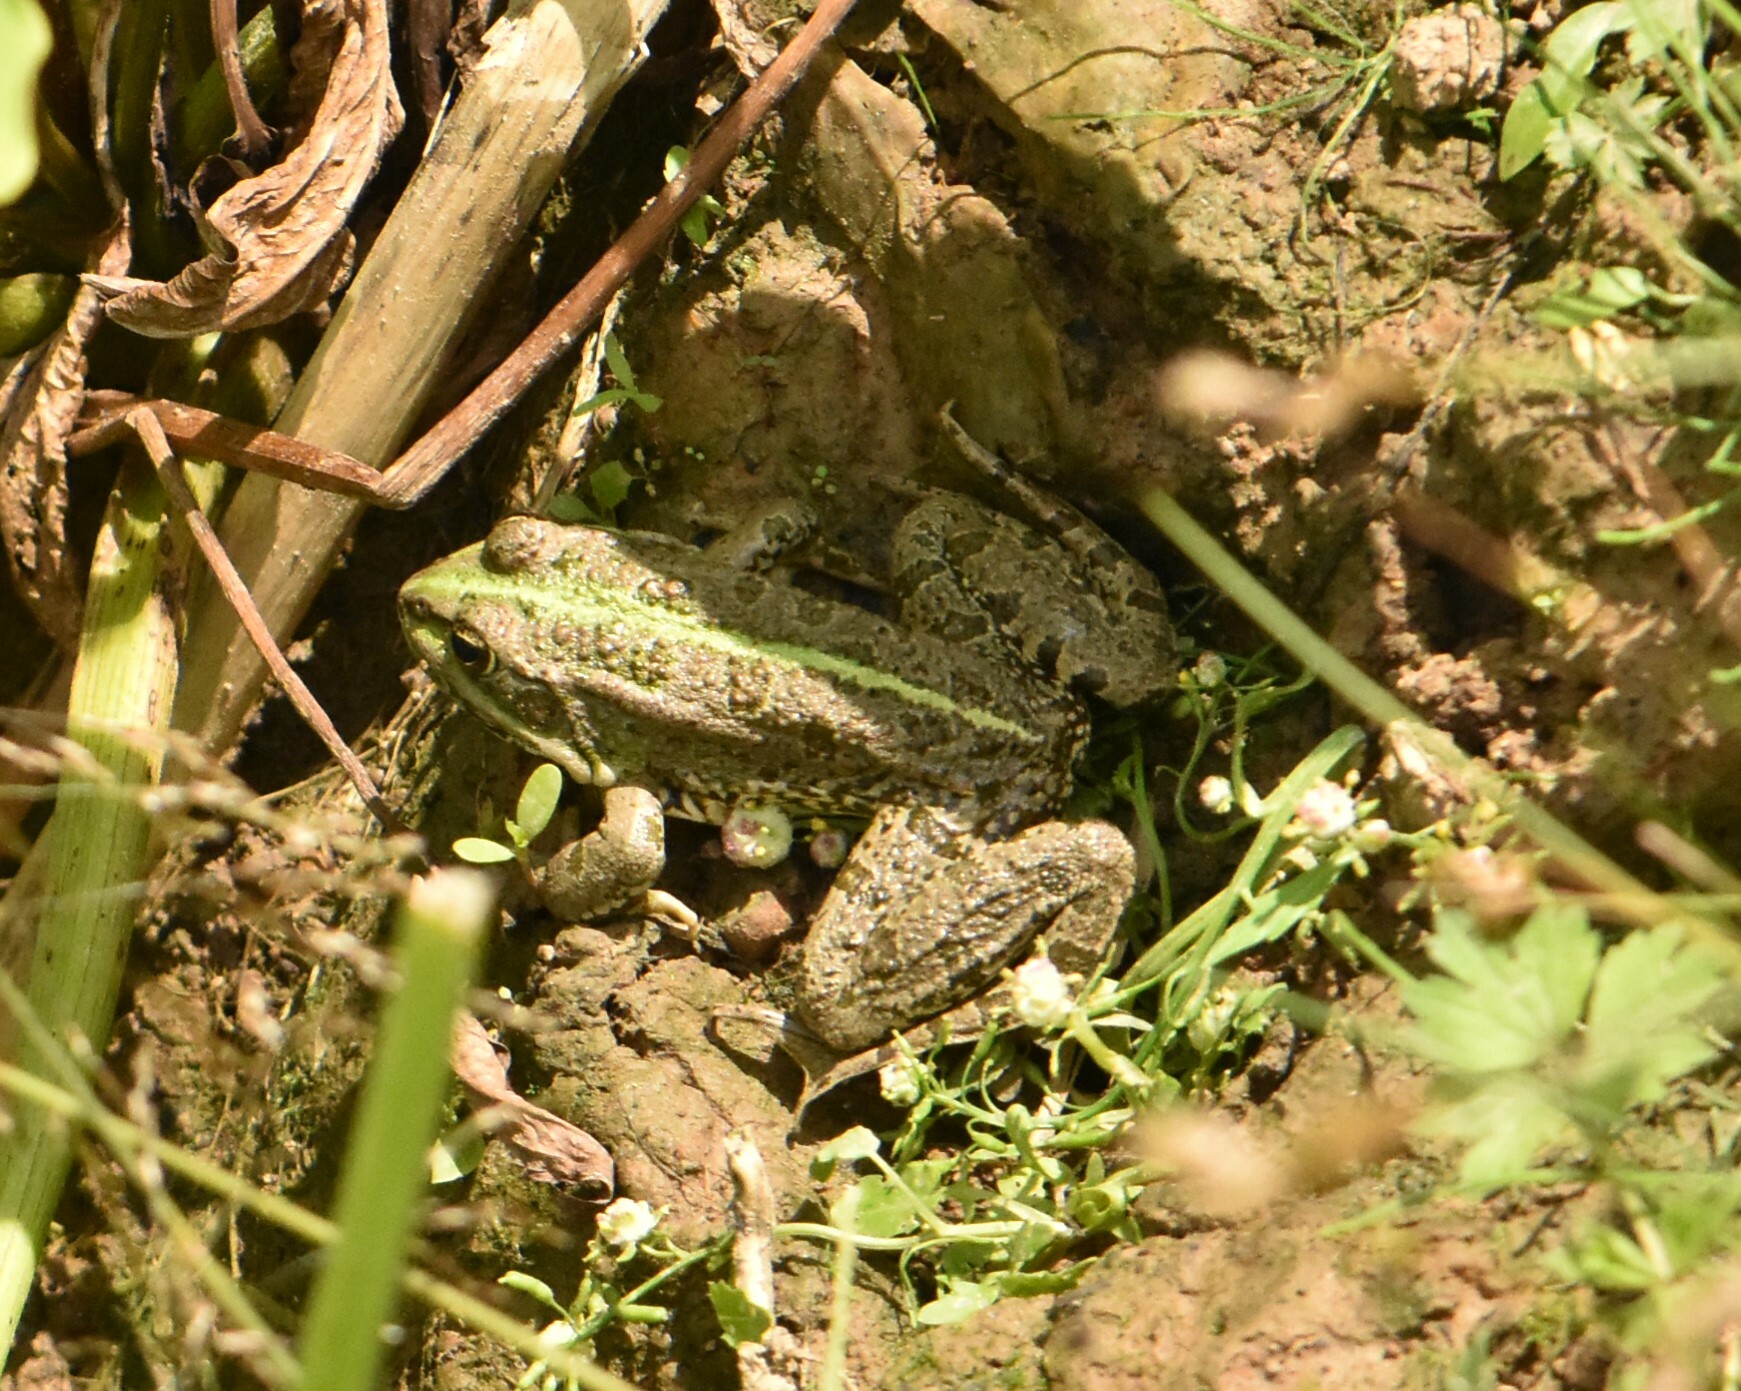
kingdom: Animalia
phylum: Chordata
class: Amphibia
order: Anura
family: Ranidae
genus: Pelophylax
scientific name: Pelophylax ridibundus
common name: Marsh frog
